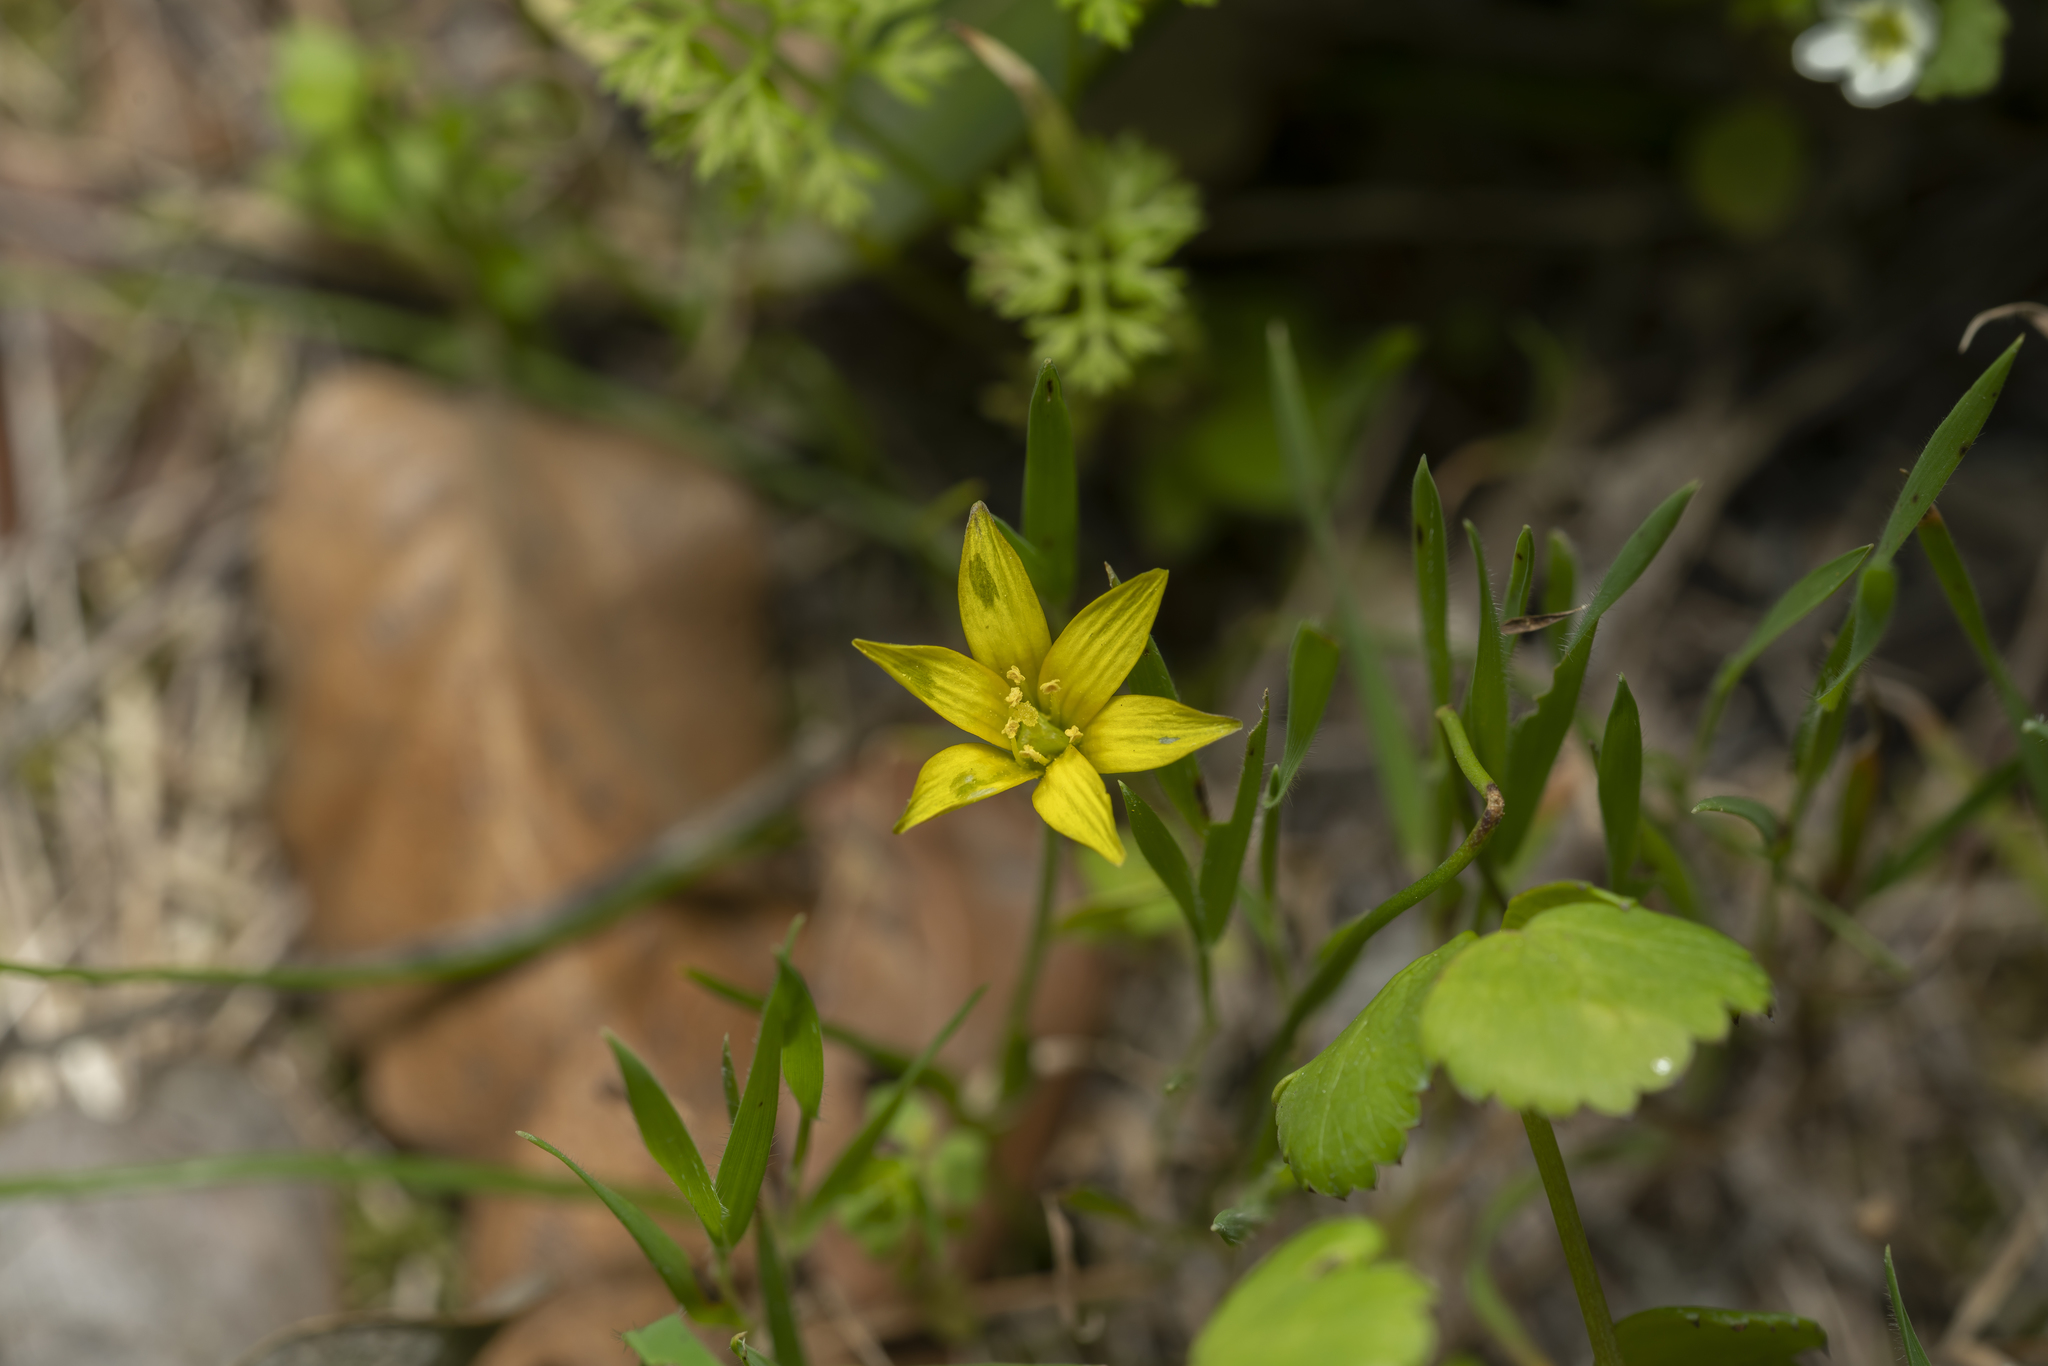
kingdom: Plantae
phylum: Tracheophyta
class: Liliopsida
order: Liliales
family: Liliaceae
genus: Gagea
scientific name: Gagea fibrosa
